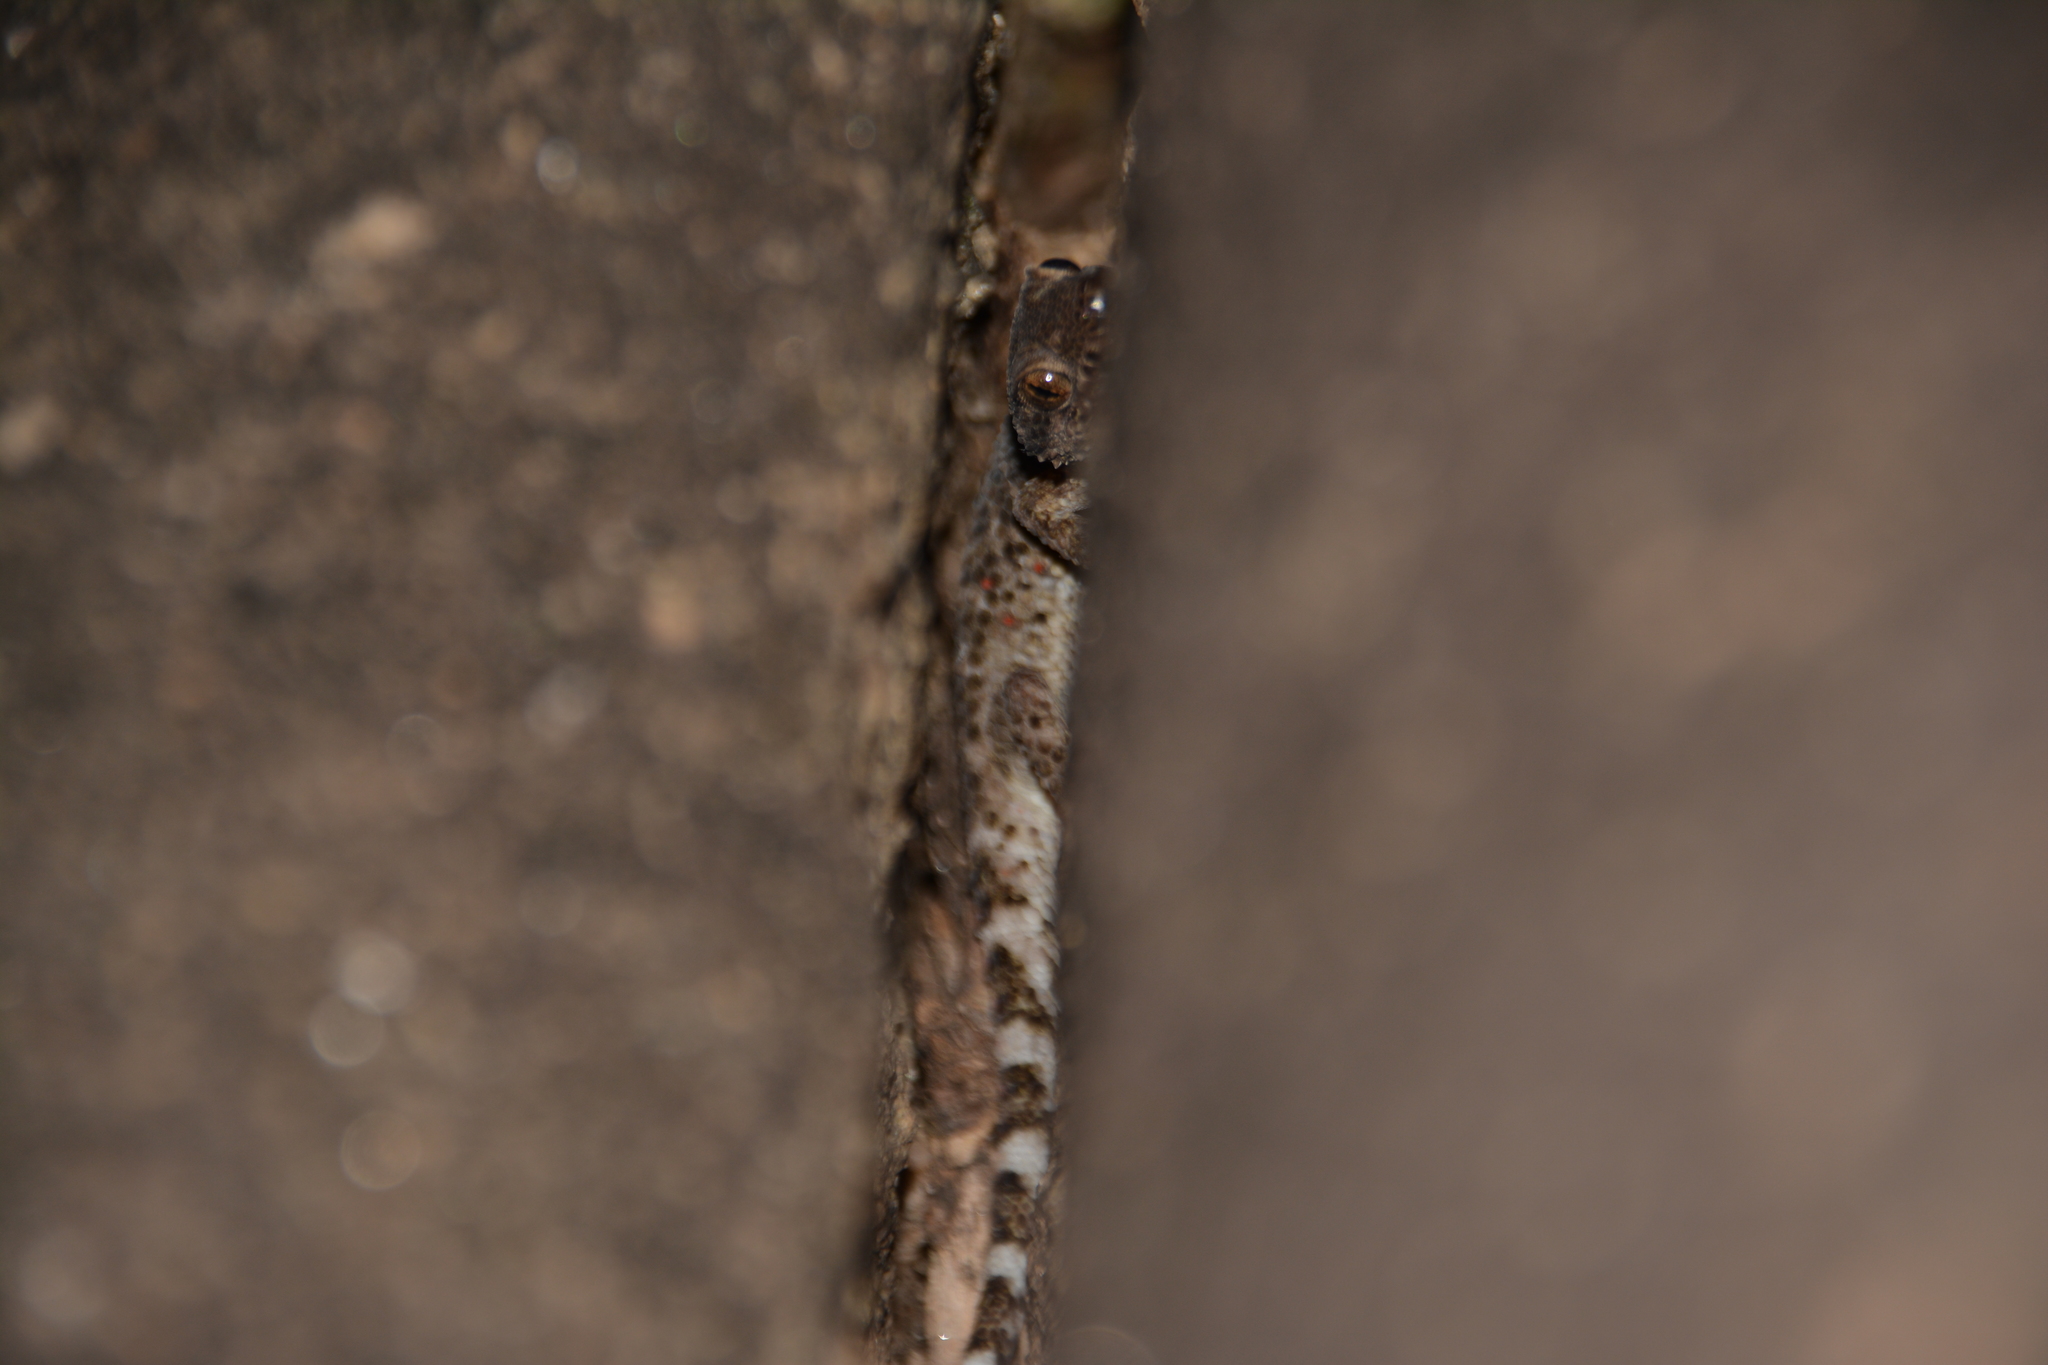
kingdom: Animalia
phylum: Chordata
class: Squamata
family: Phyllodactylidae
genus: Homonota
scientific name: Homonota horrida
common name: South american marked gecko
